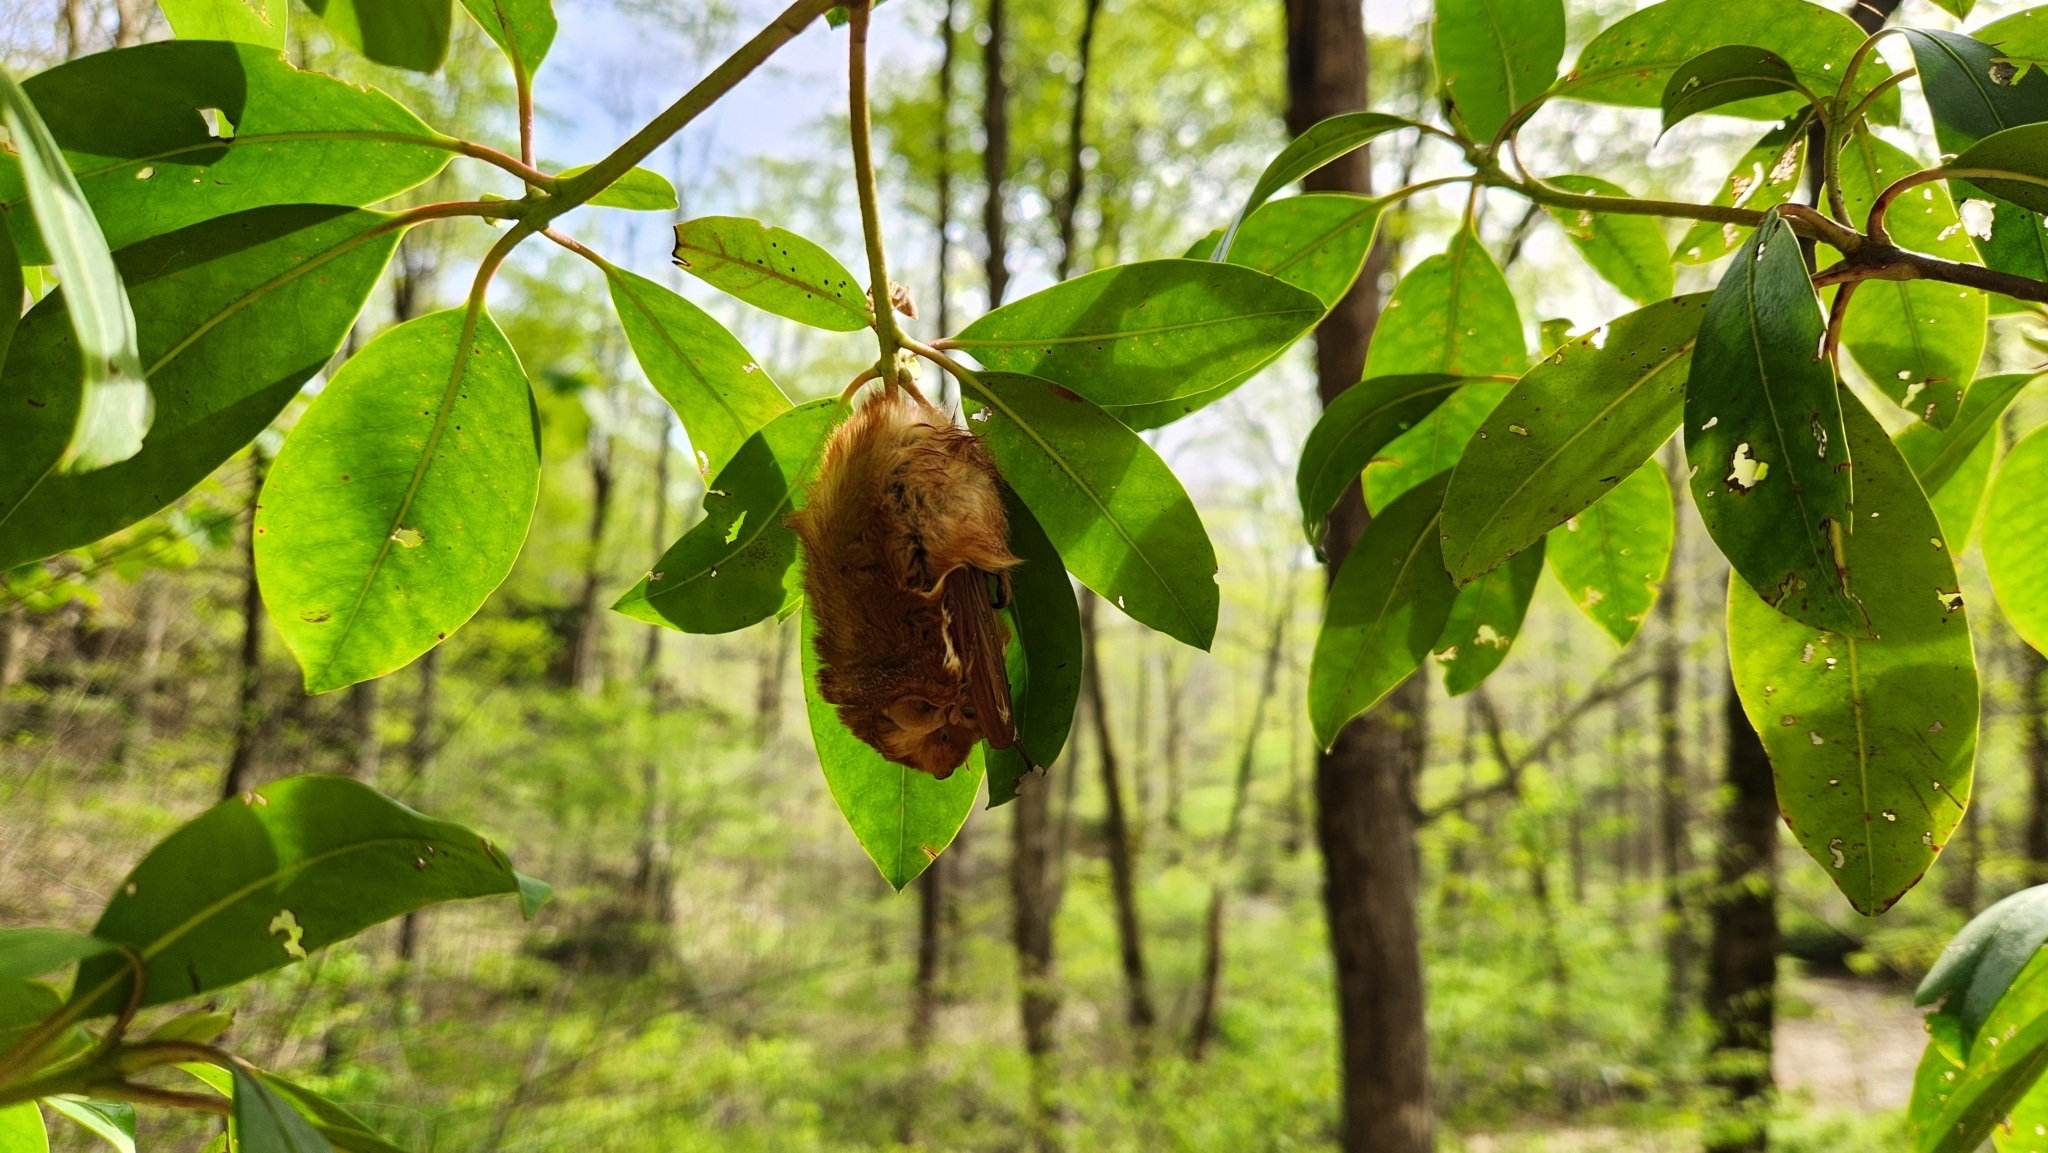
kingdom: Animalia
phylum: Chordata
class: Mammalia
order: Chiroptera
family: Vespertilionidae
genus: Lasiurus
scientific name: Lasiurus borealis
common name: Eastern red bat
